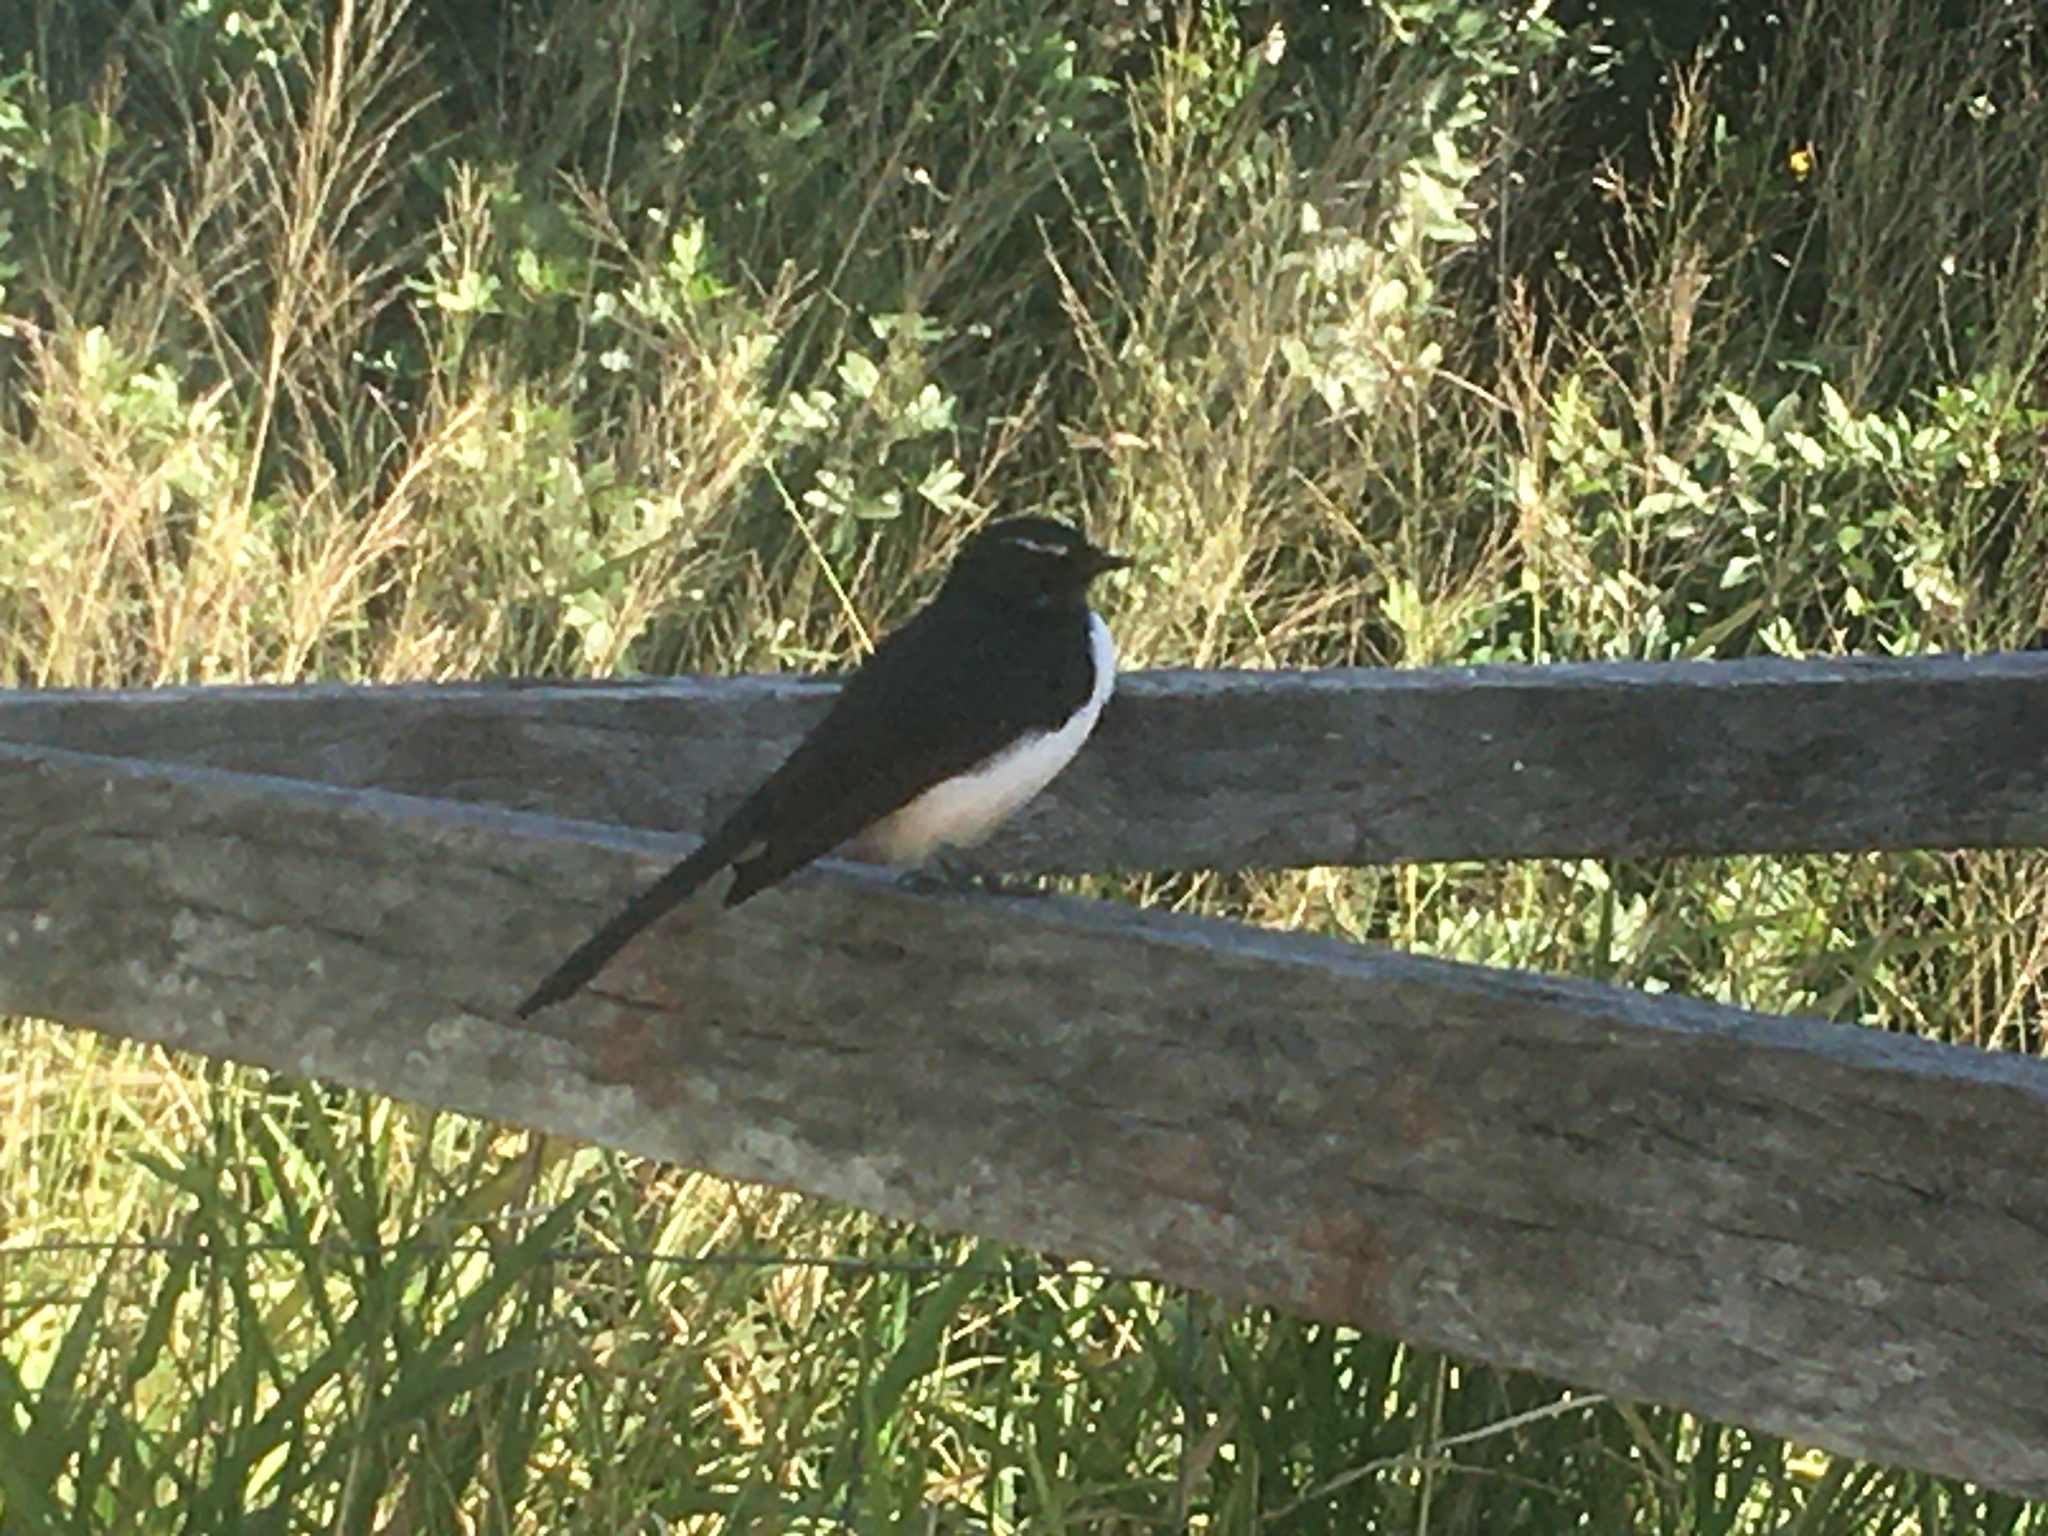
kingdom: Animalia
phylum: Chordata
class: Aves
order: Passeriformes
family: Rhipiduridae
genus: Rhipidura
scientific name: Rhipidura leucophrys
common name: Willie wagtail
